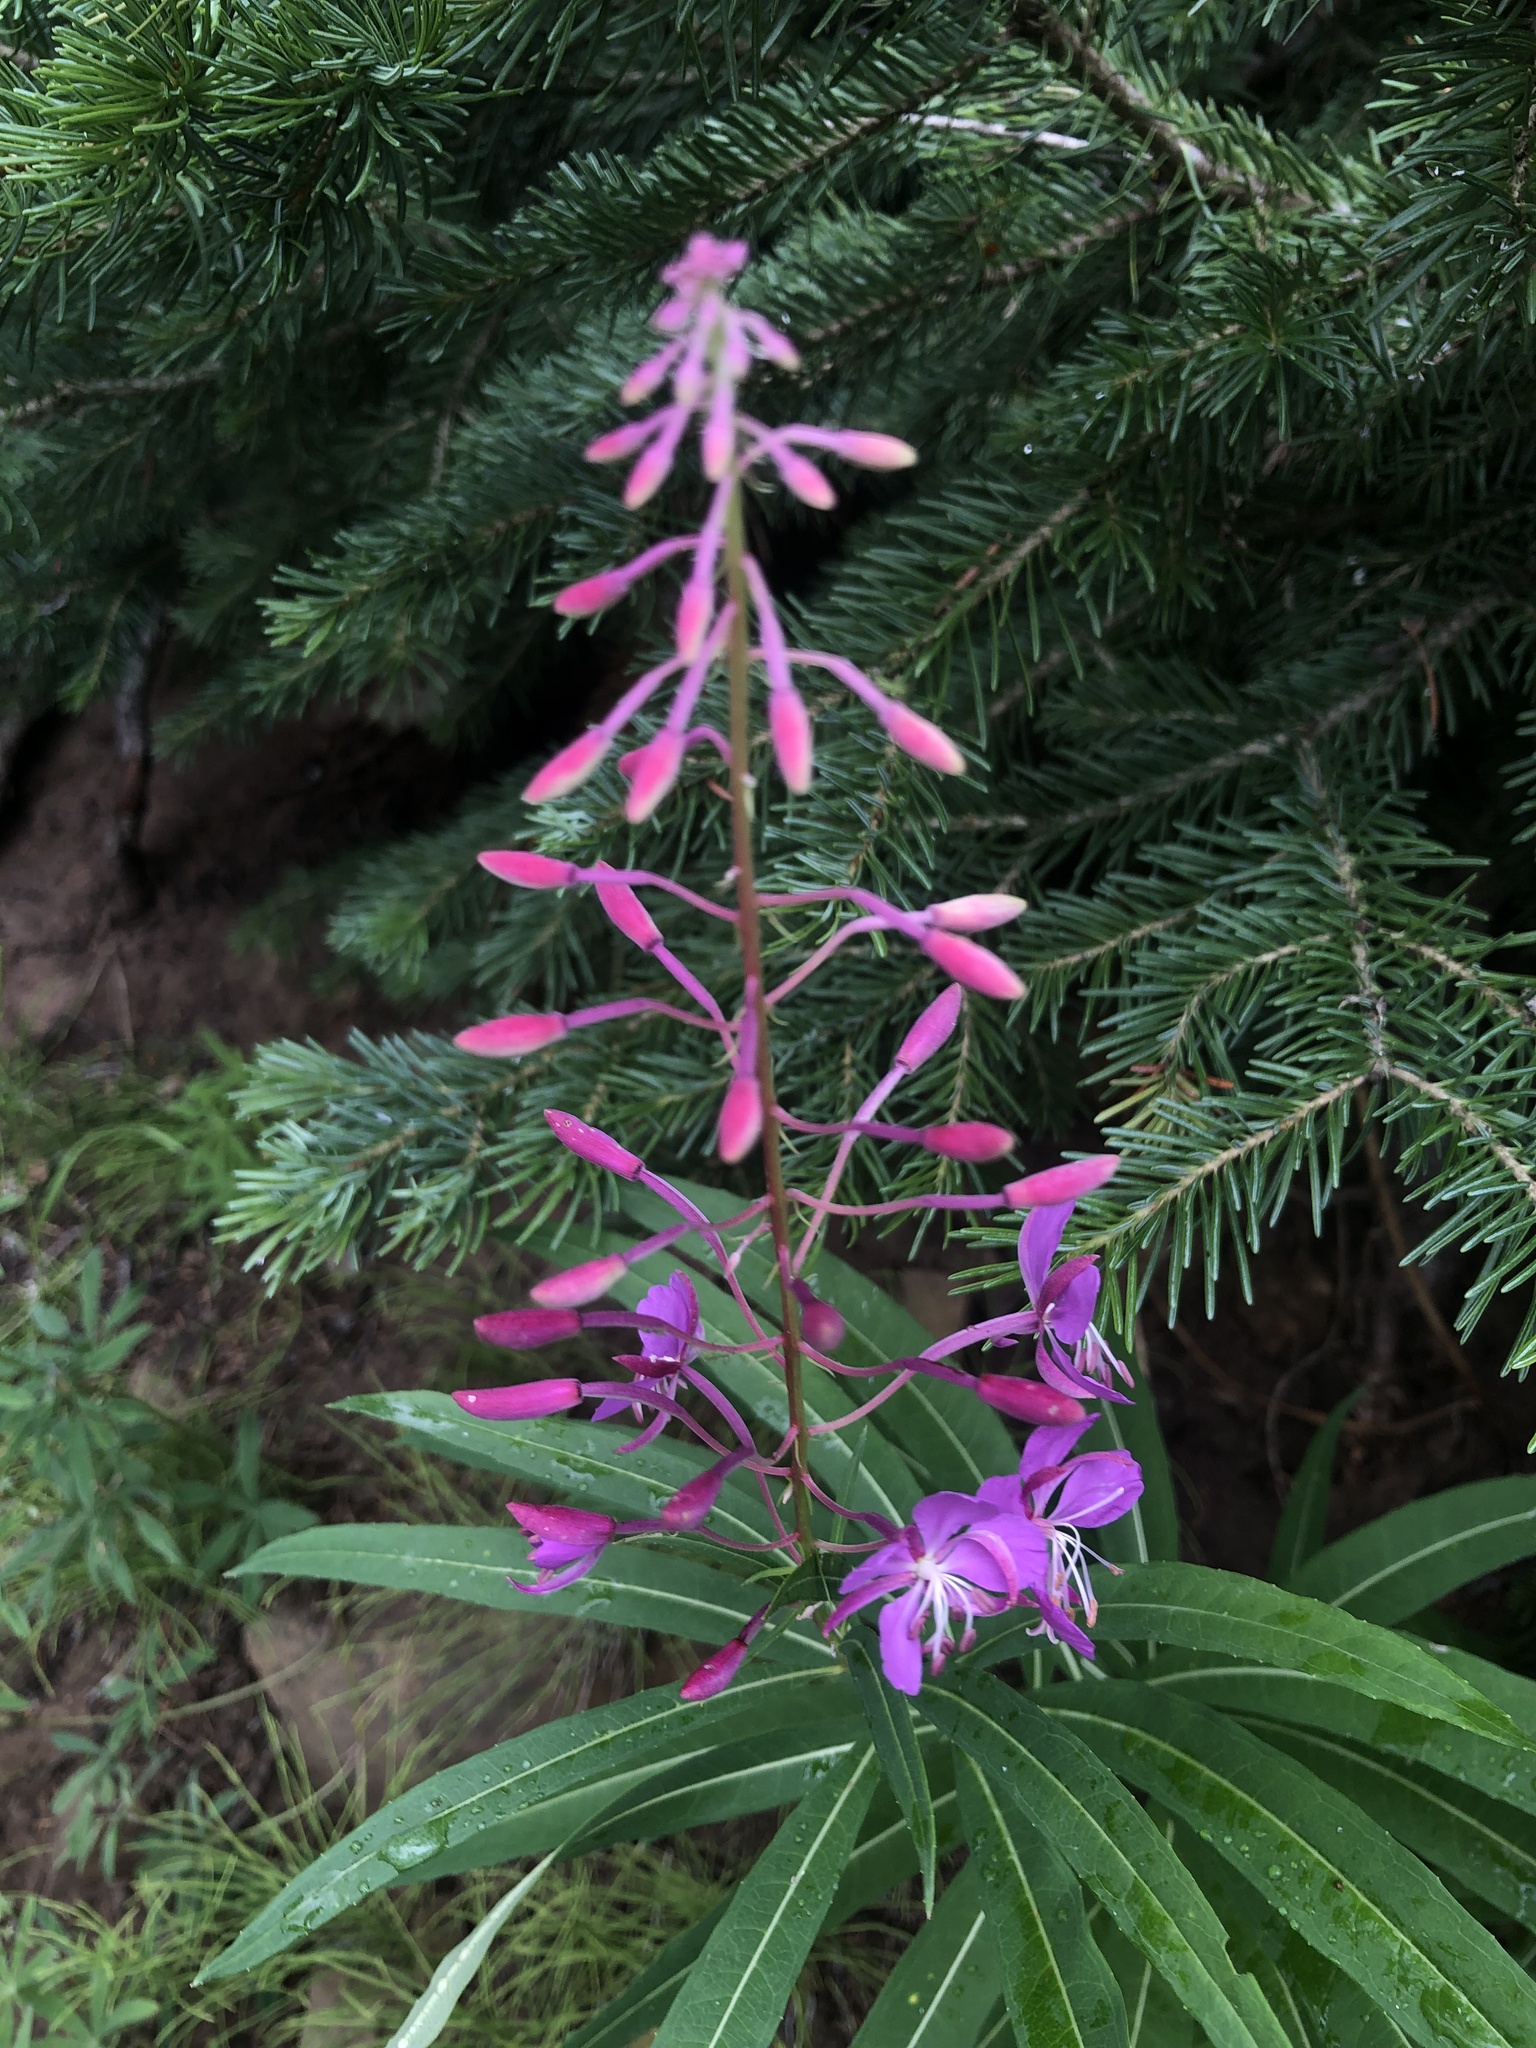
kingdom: Plantae
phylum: Tracheophyta
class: Magnoliopsida
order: Myrtales
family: Onagraceae
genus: Chamaenerion
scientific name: Chamaenerion angustifolium
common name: Fireweed
